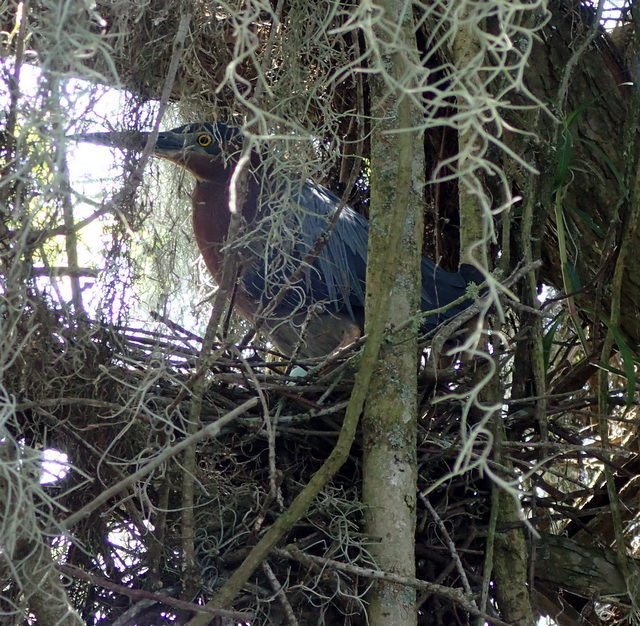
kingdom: Animalia
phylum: Chordata
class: Aves
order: Pelecaniformes
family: Ardeidae
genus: Butorides
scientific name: Butorides virescens
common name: Green heron
